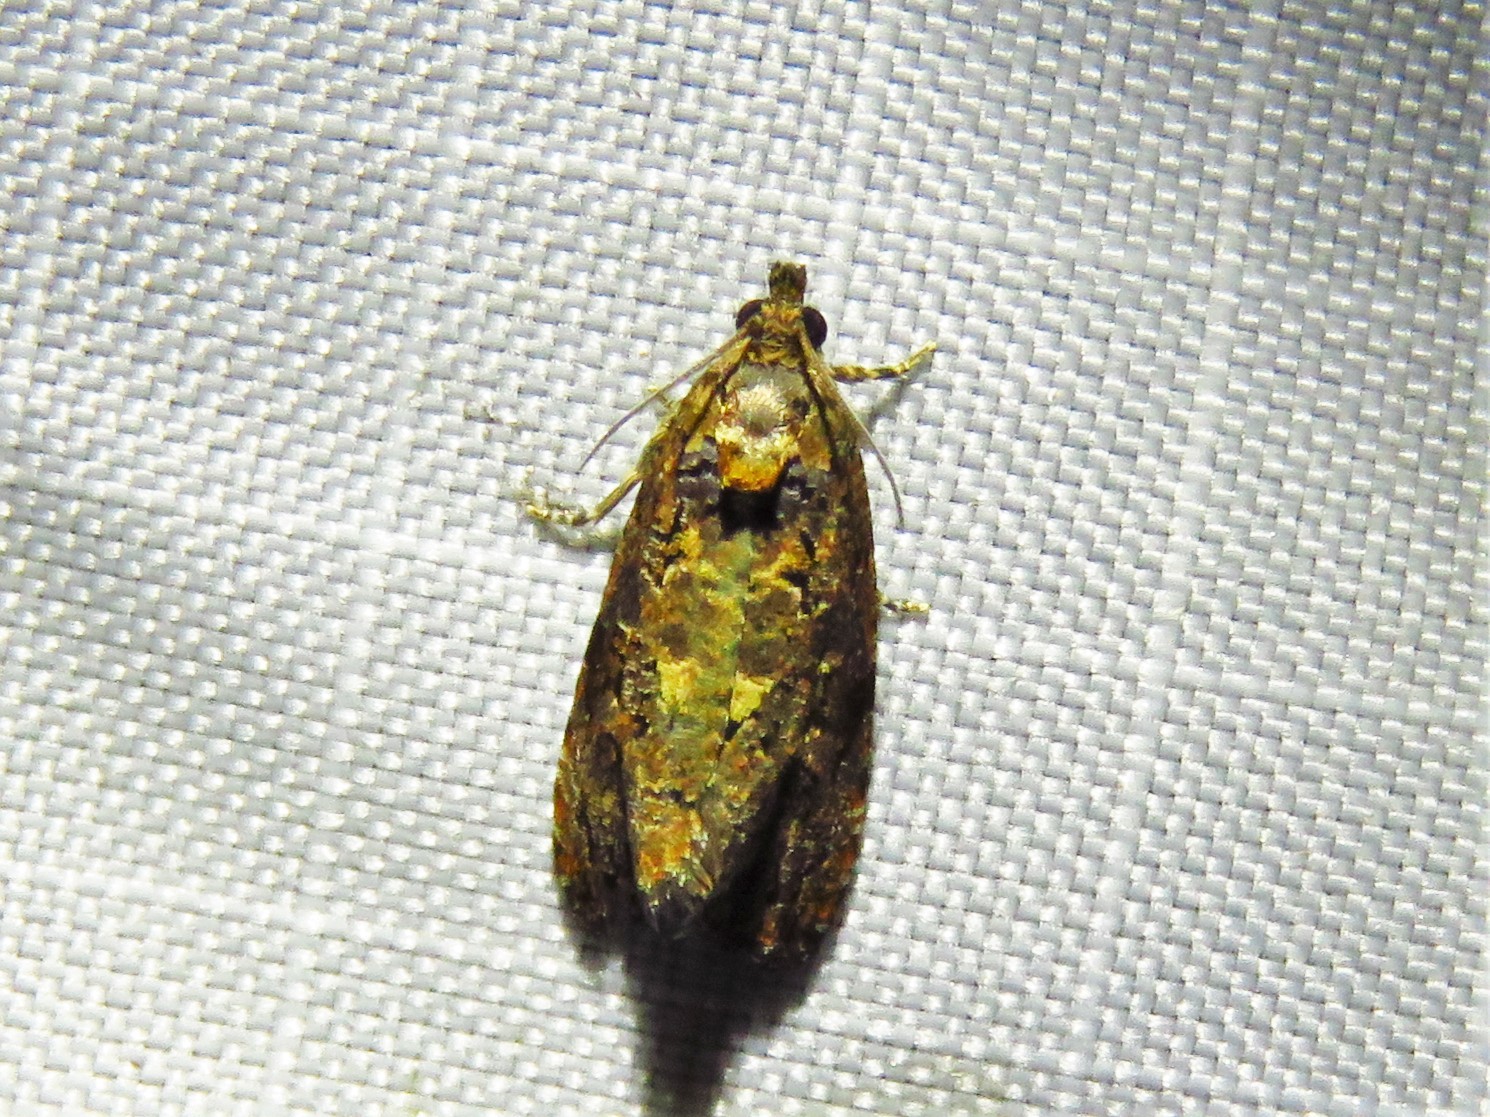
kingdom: Animalia
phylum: Arthropoda
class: Insecta
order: Lepidoptera
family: Tortricidae
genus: Endothenia
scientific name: Endothenia hebesana
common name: Verbena bud moth
